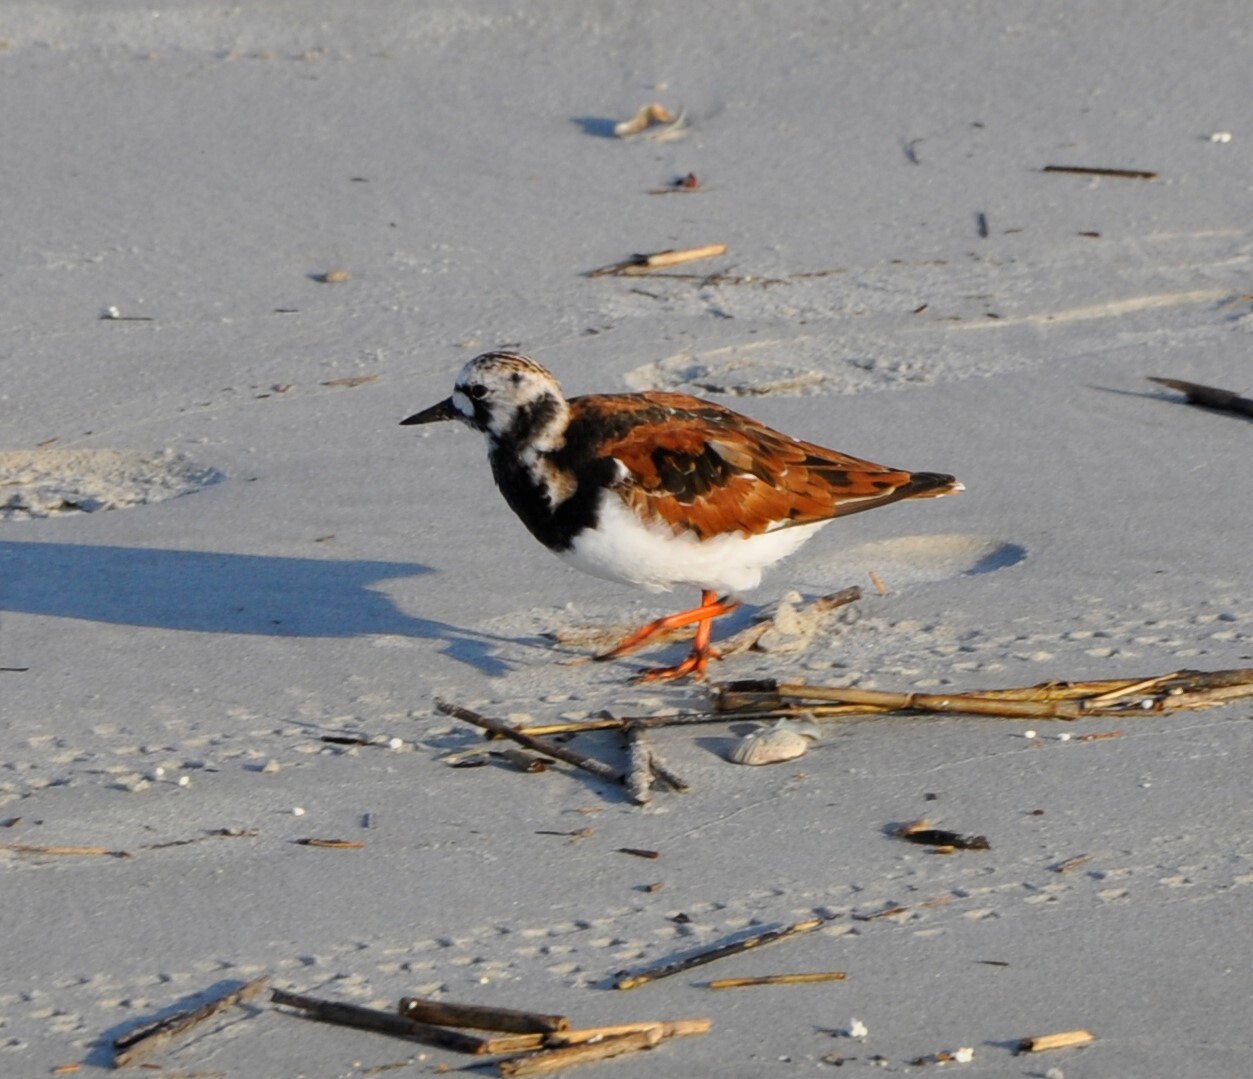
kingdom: Animalia
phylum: Chordata
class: Aves
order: Charadriiformes
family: Scolopacidae
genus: Arenaria
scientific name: Arenaria interpres
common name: Ruddy turnstone
